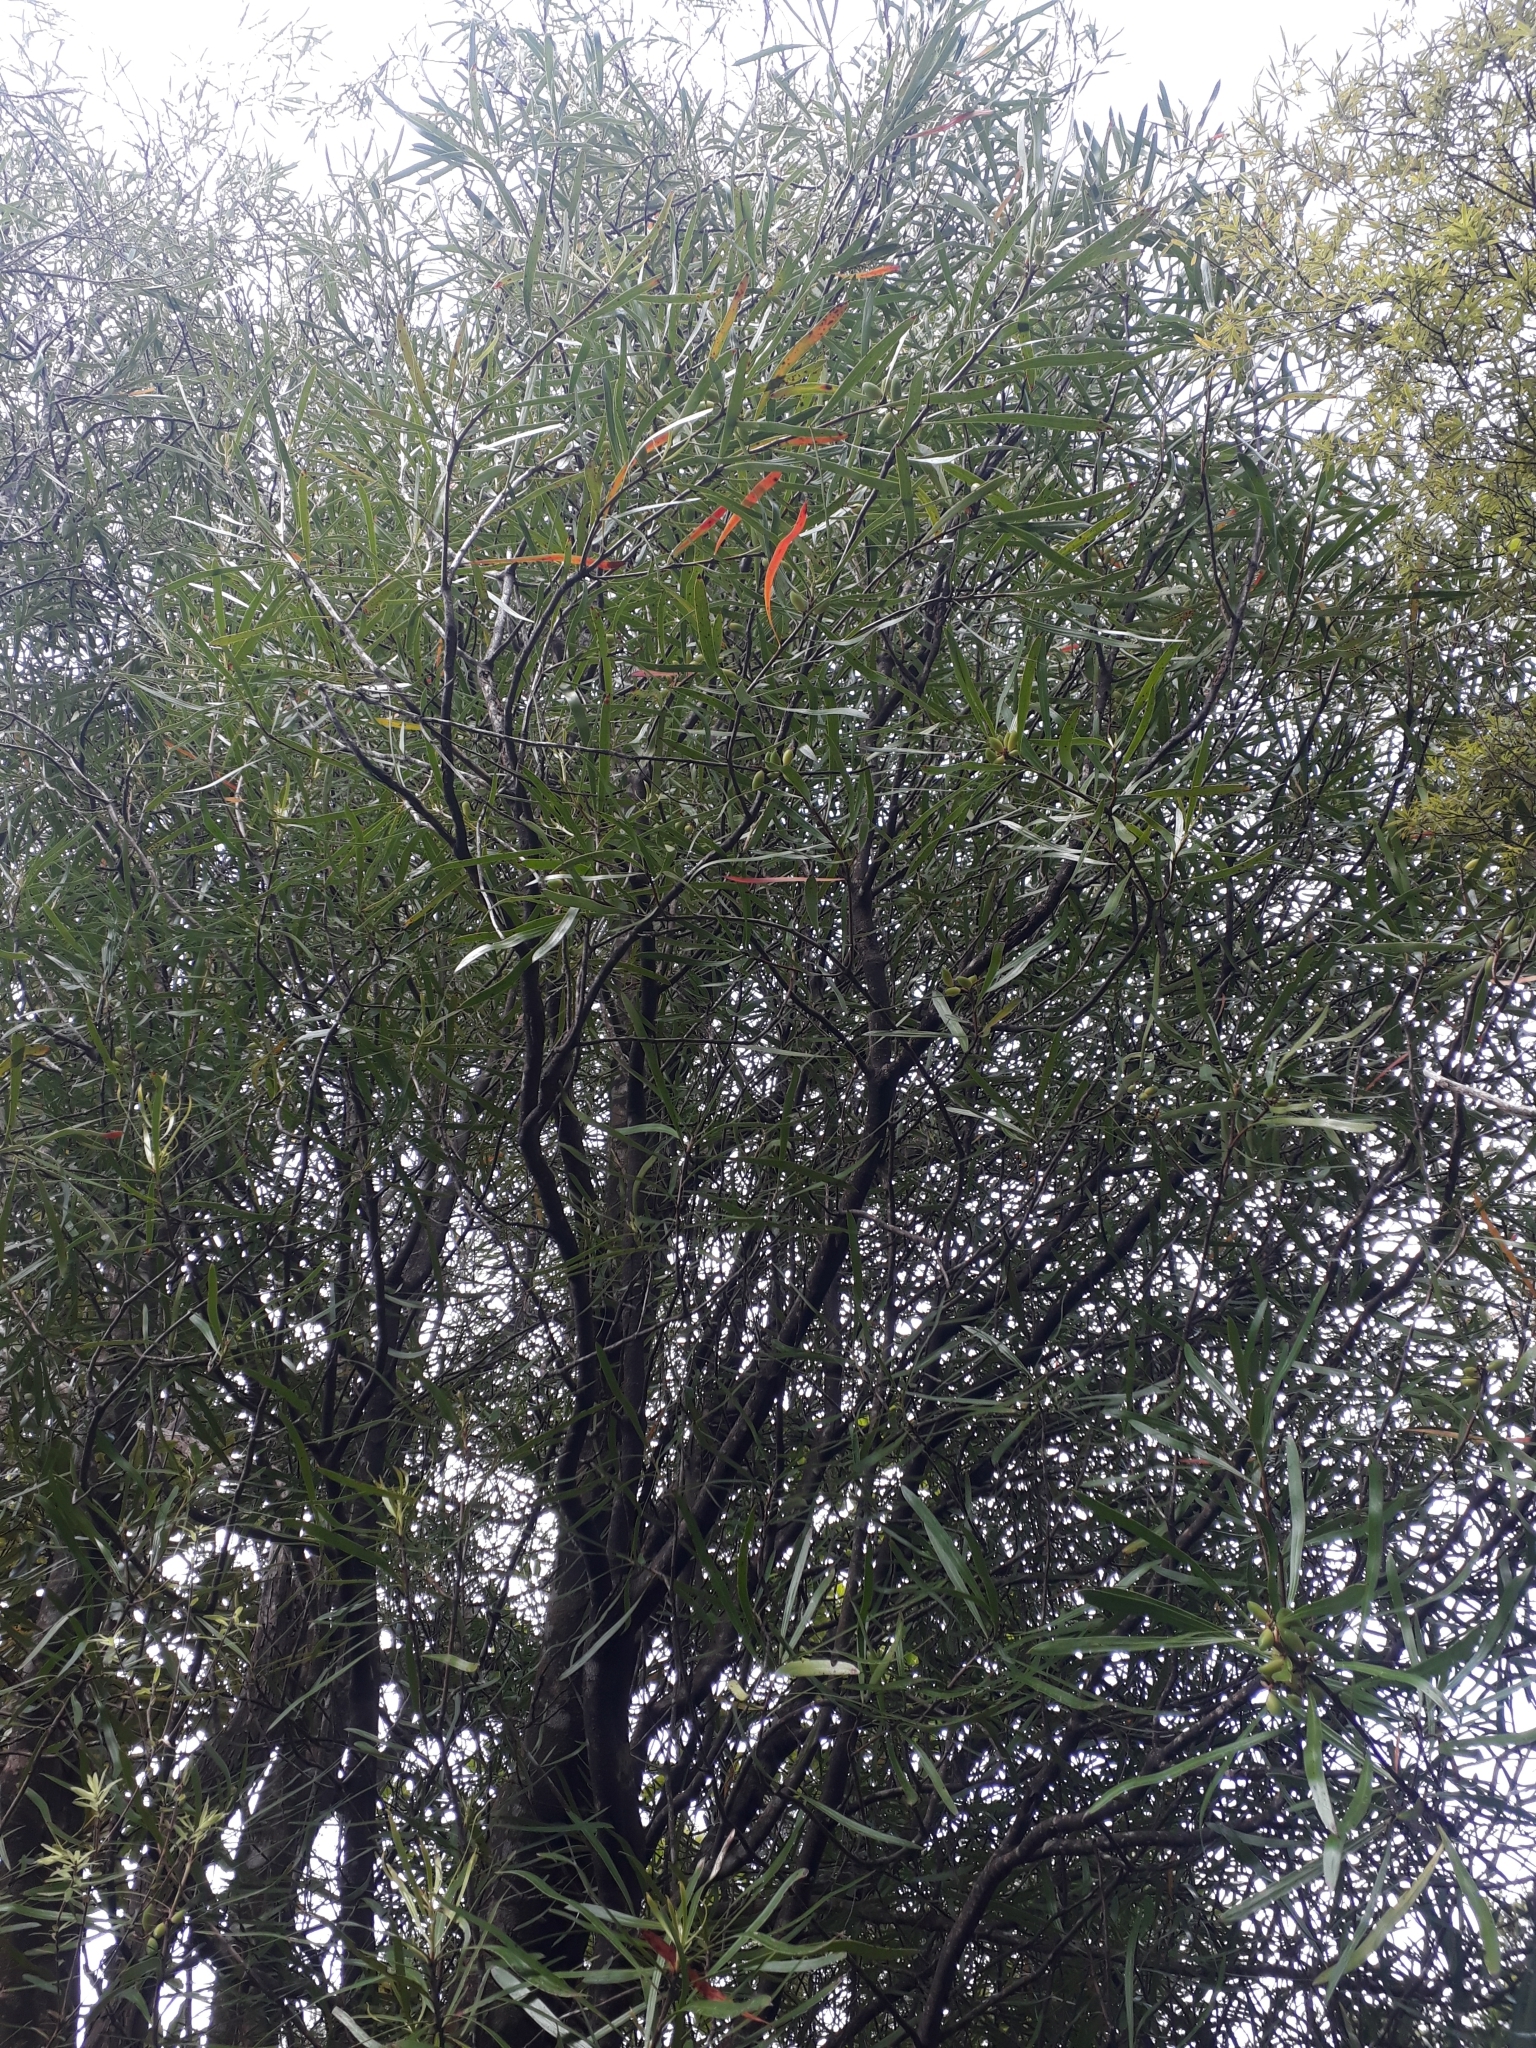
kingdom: Plantae
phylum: Tracheophyta
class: Magnoliopsida
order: Proteales
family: Proteaceae
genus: Toronia
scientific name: Toronia toru
